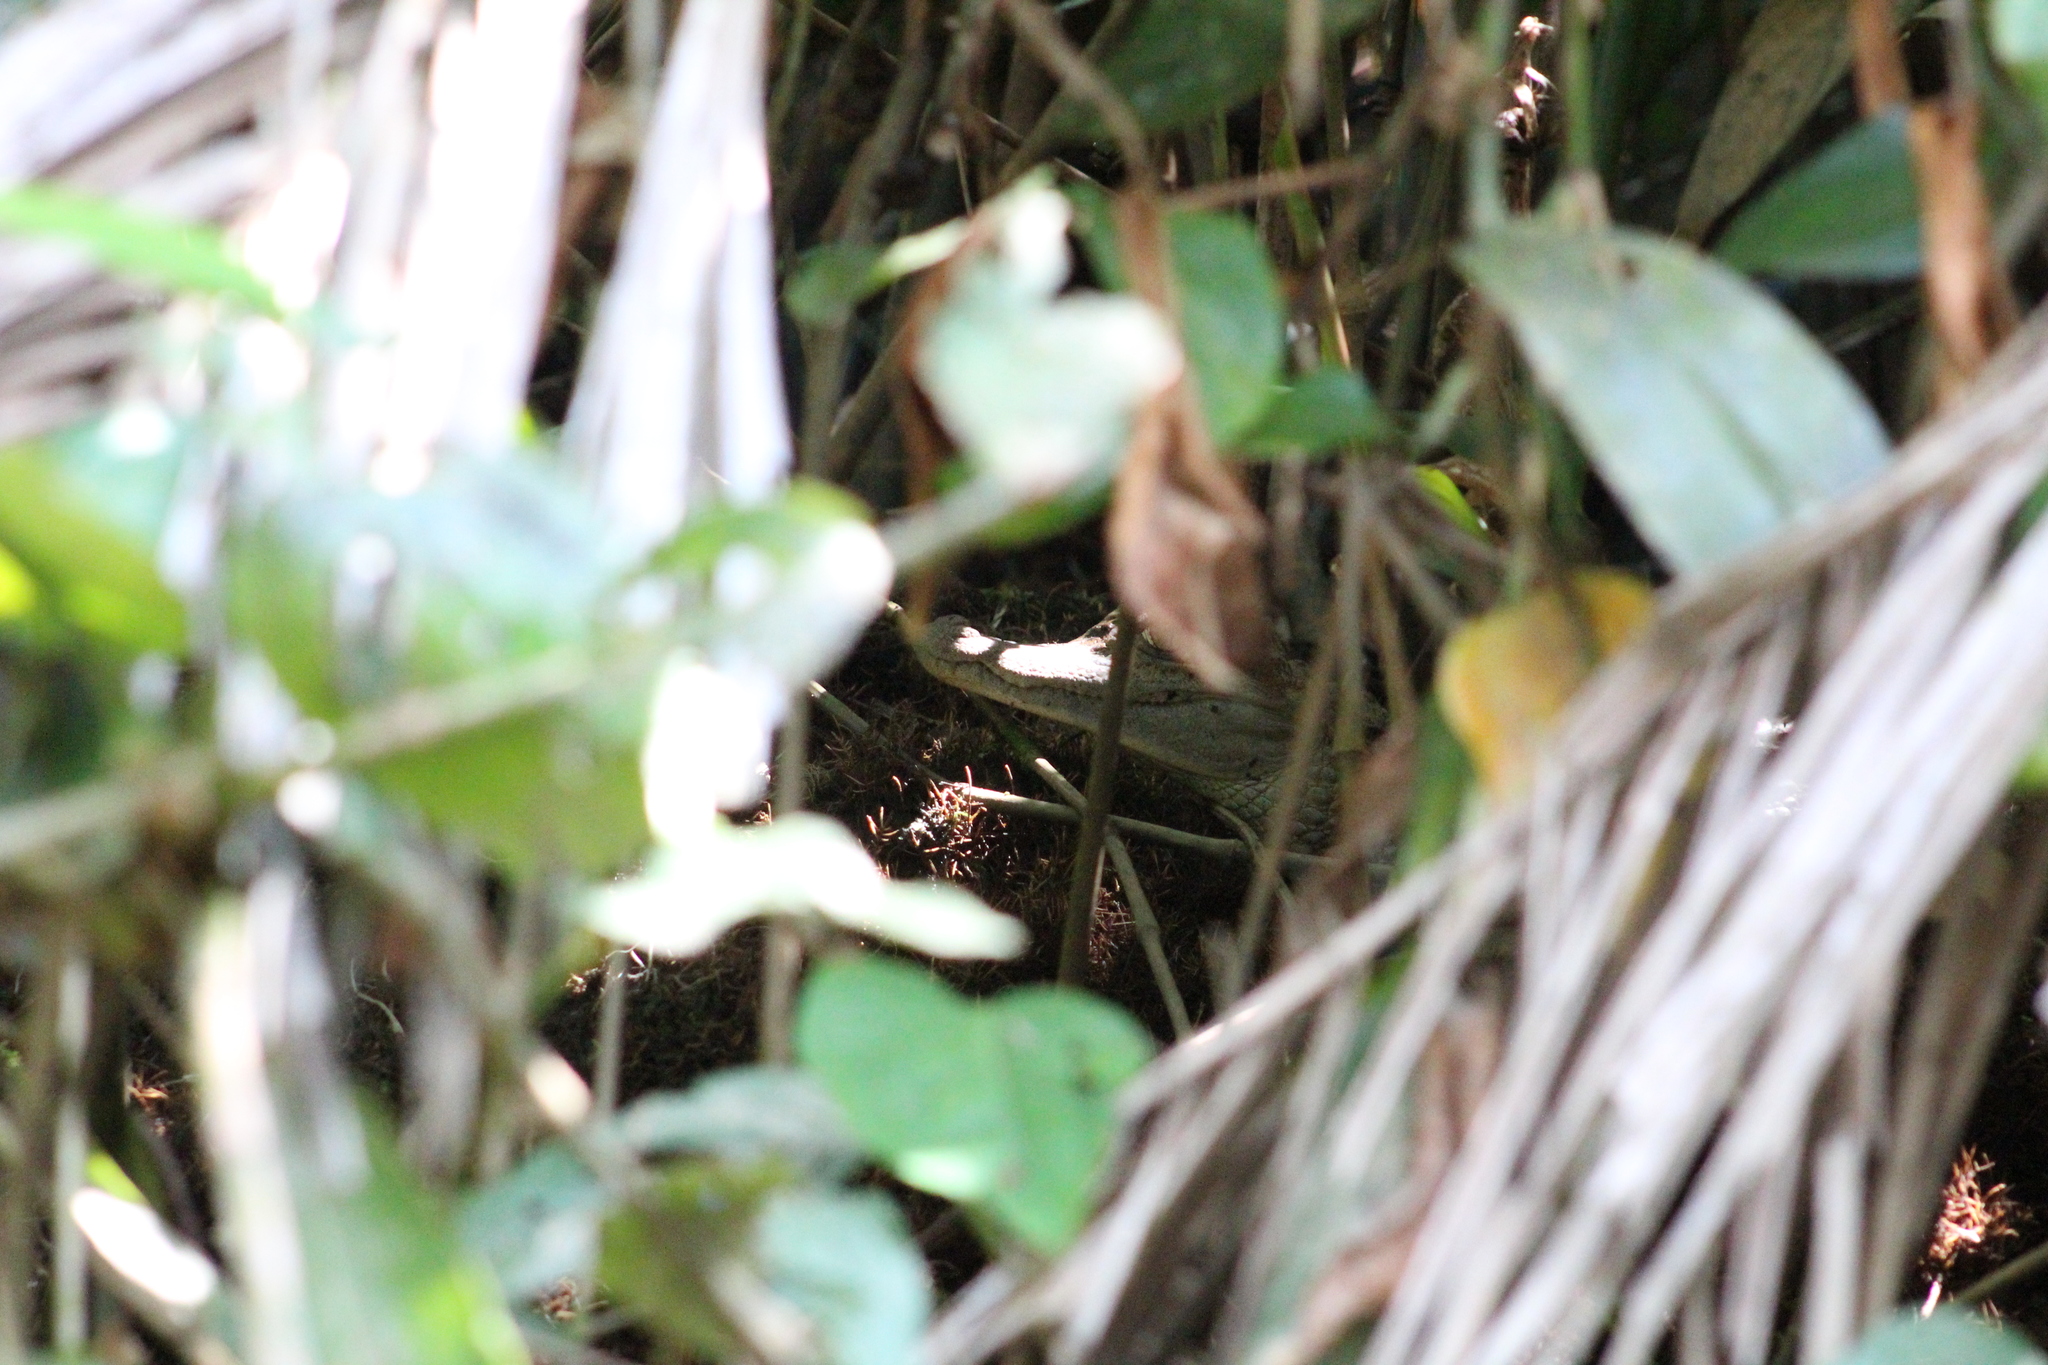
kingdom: Animalia
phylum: Chordata
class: Crocodylia
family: Alligatoridae
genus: Caiman
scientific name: Caiman crocodilus
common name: Common caiman
